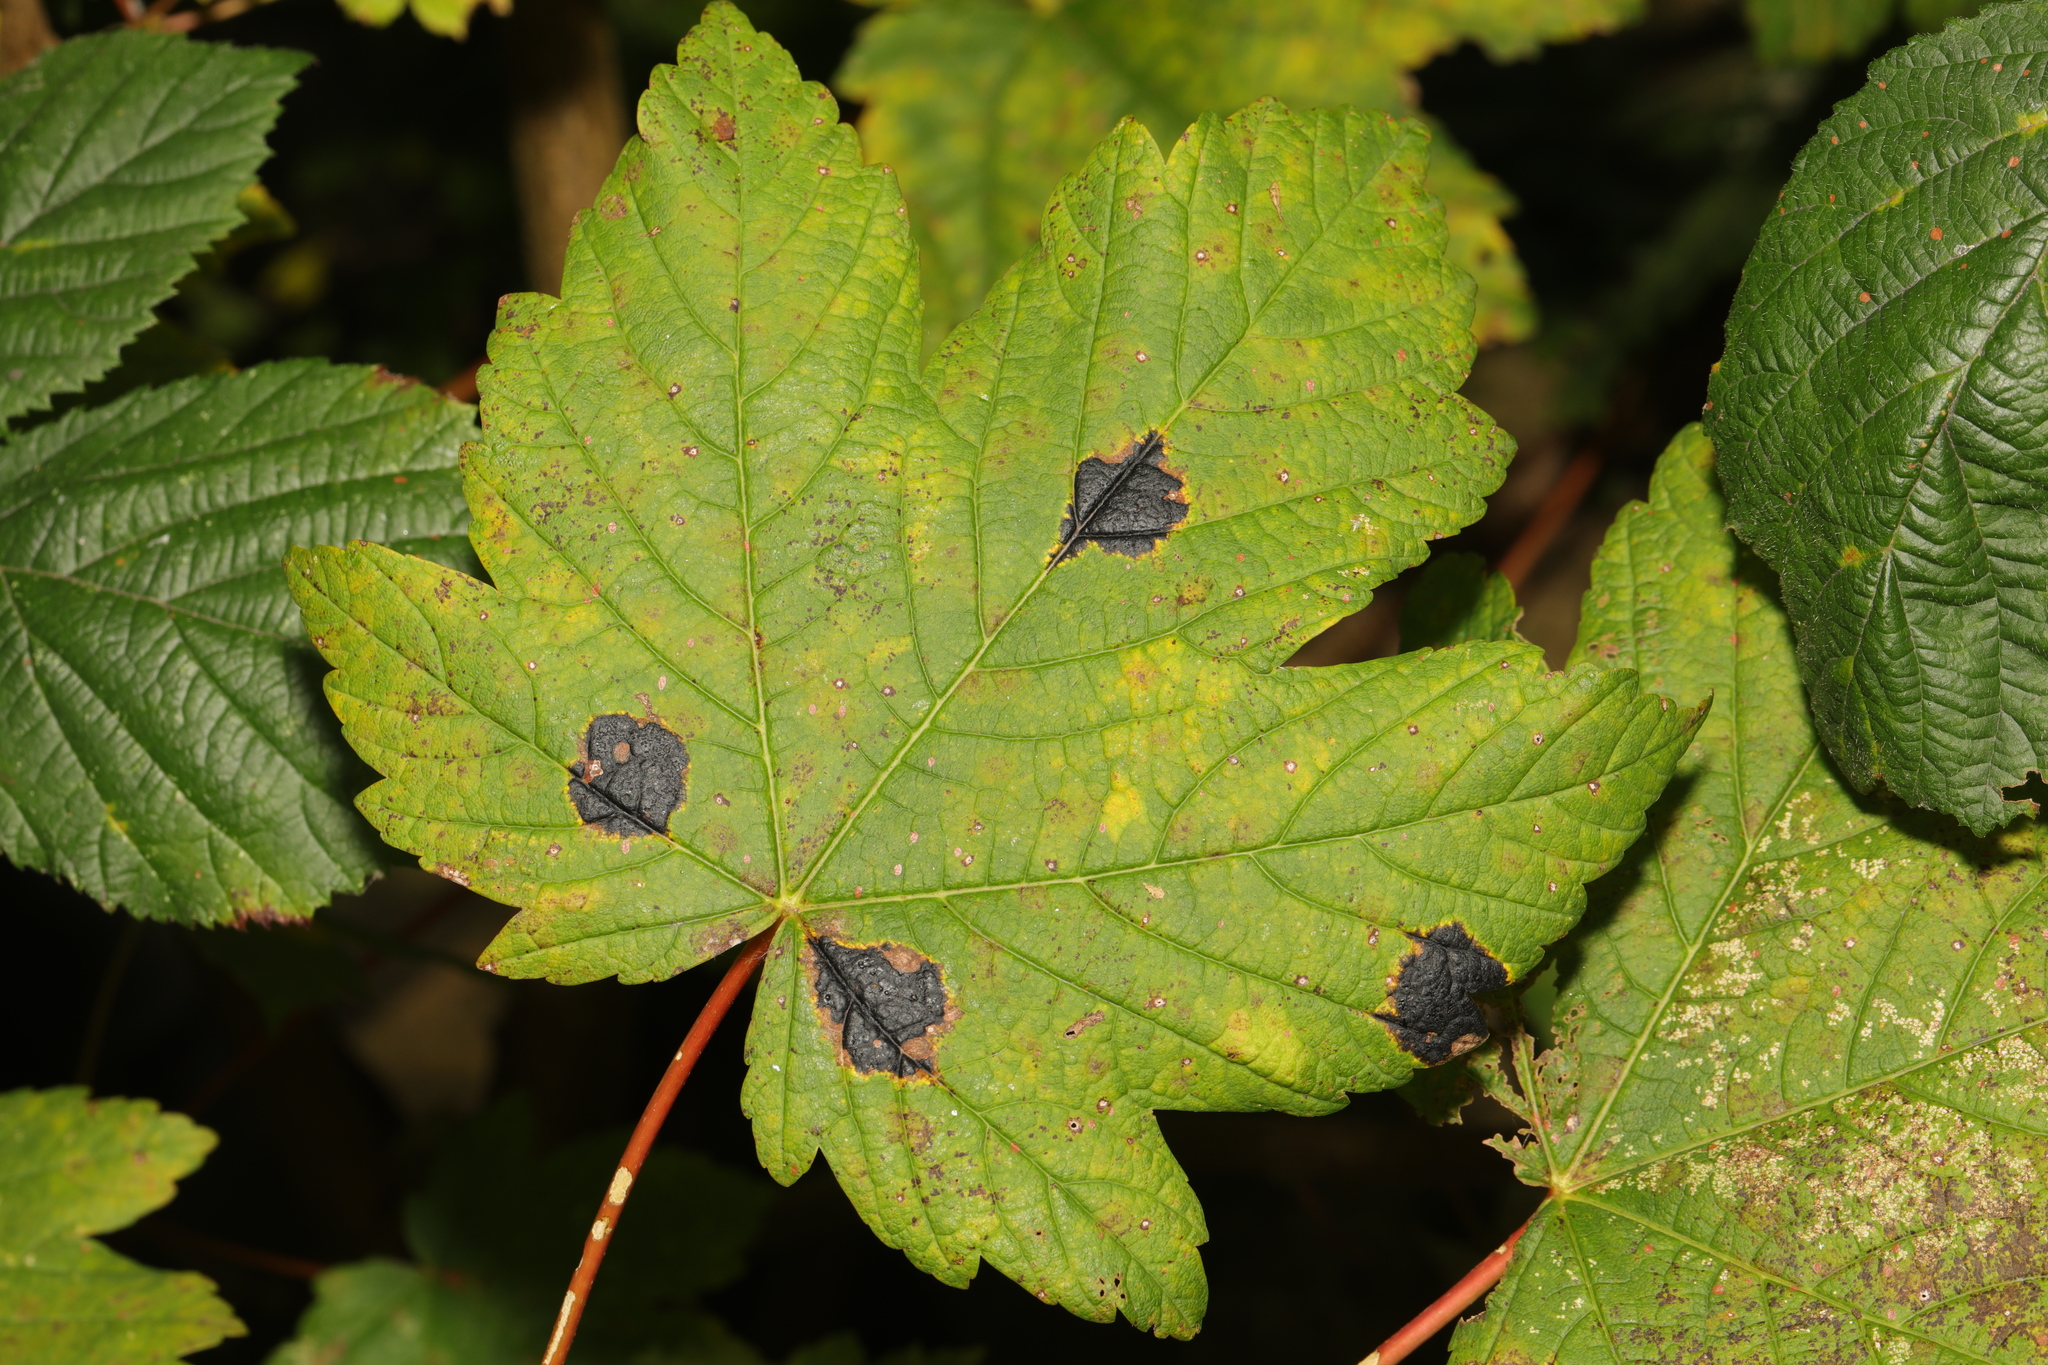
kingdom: Fungi
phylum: Ascomycota
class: Leotiomycetes
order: Rhytismatales
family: Rhytismataceae
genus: Rhytisma
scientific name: Rhytisma acerinum
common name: European tar spot
